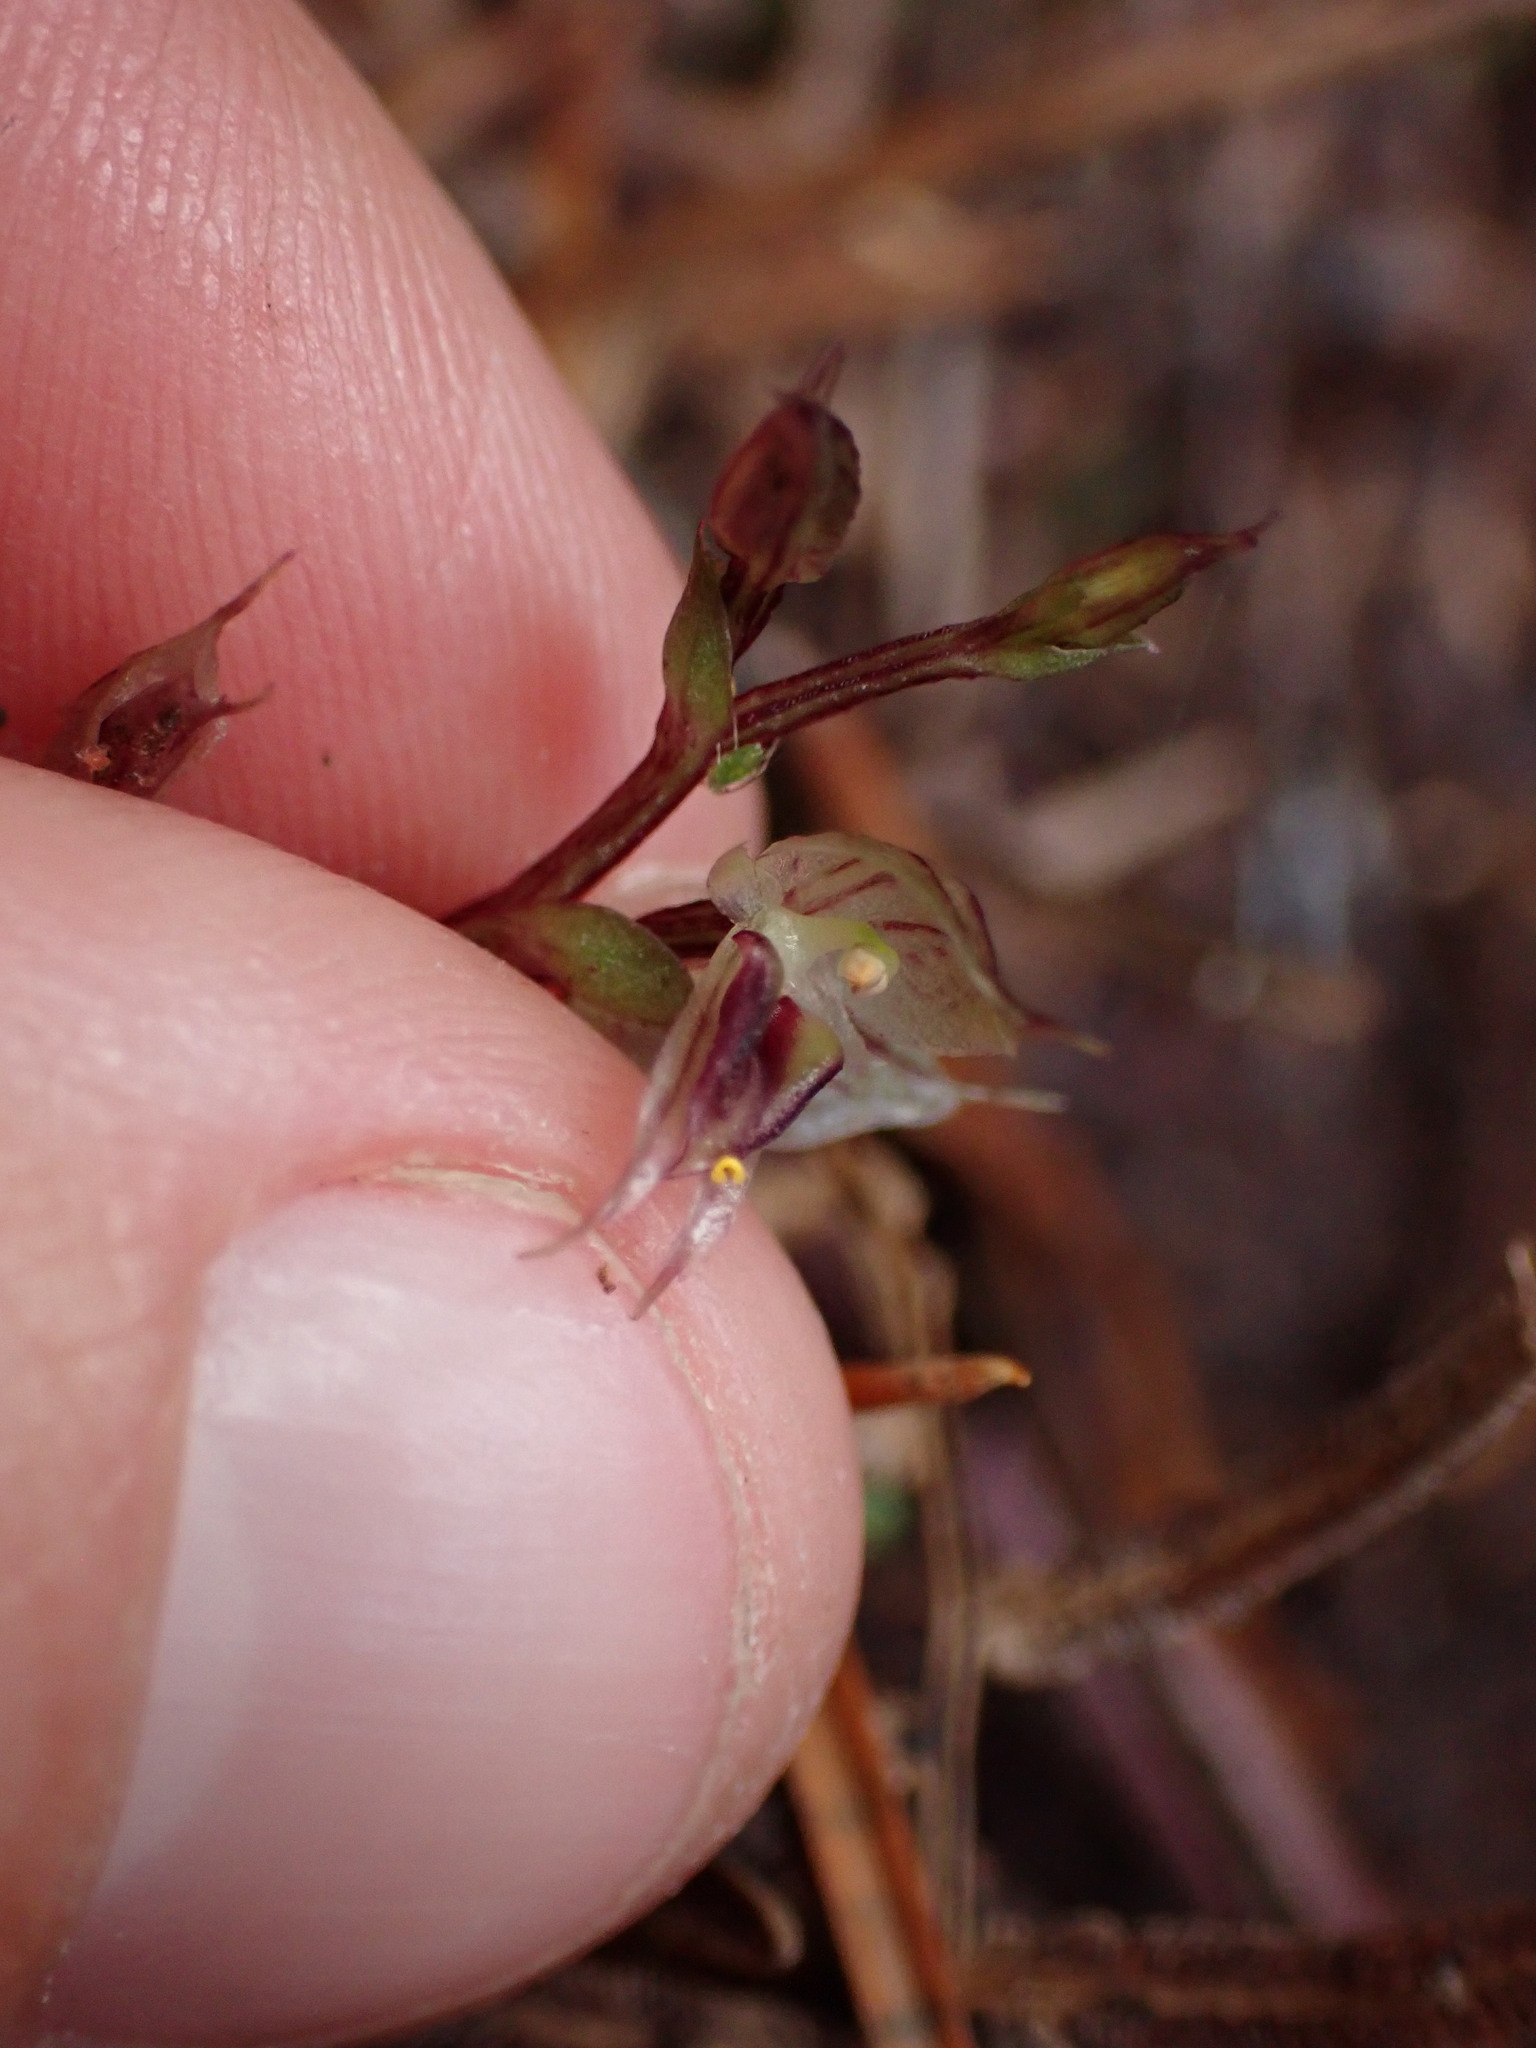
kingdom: Plantae
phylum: Tracheophyta
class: Liliopsida
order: Asparagales
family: Orchidaceae
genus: Acianthus
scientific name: Acianthus sinclairii
